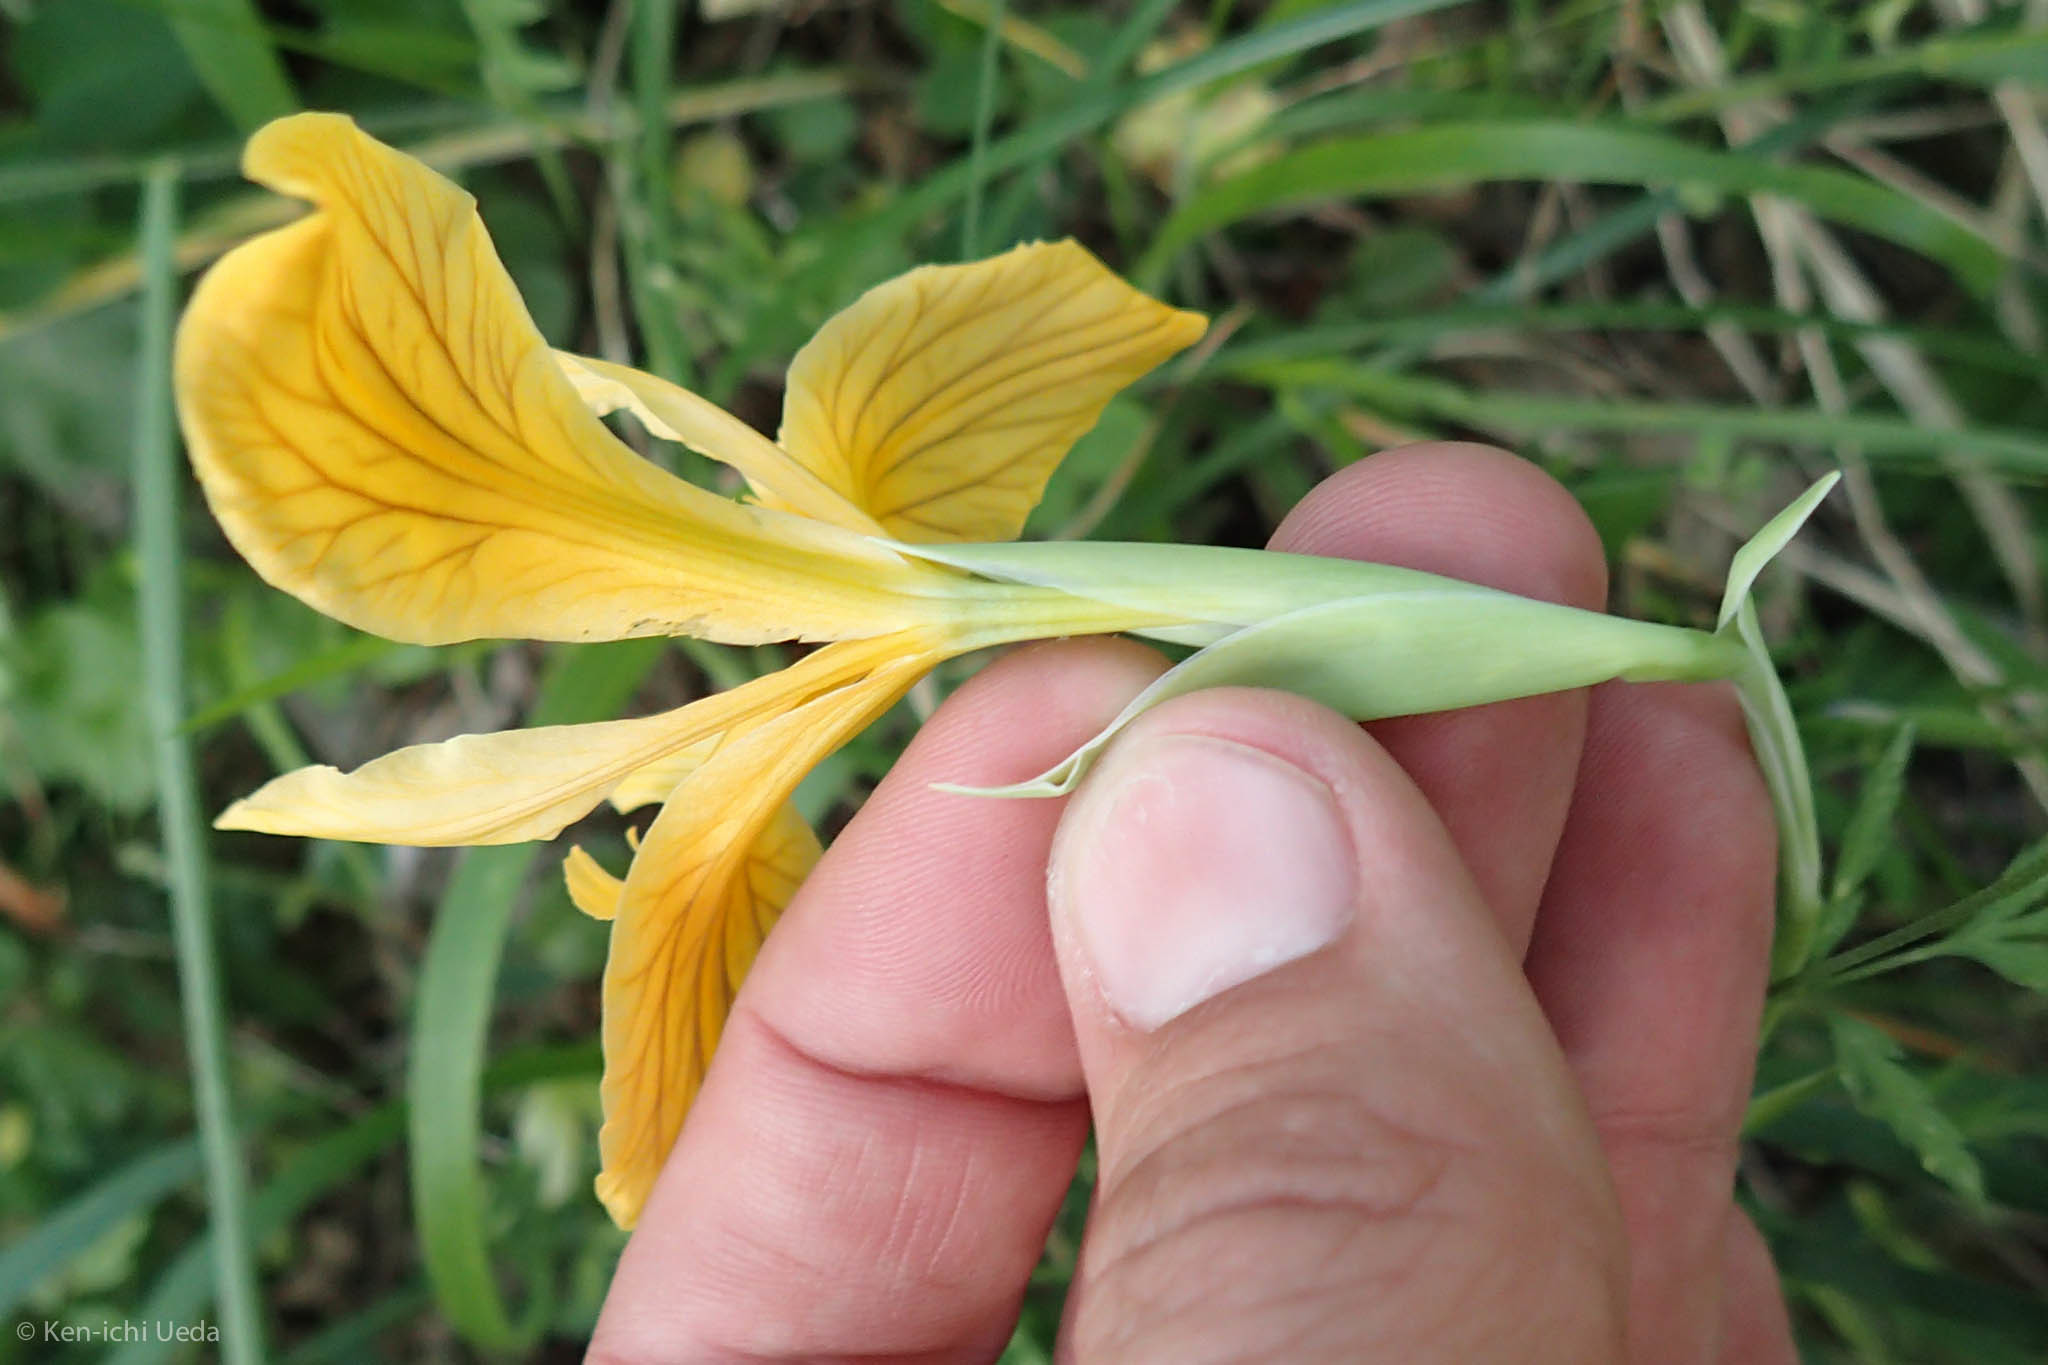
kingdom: Plantae
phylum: Tracheophyta
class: Liliopsida
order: Asparagales
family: Iridaceae
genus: Iris
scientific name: Iris innominata
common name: Del norte county iris
